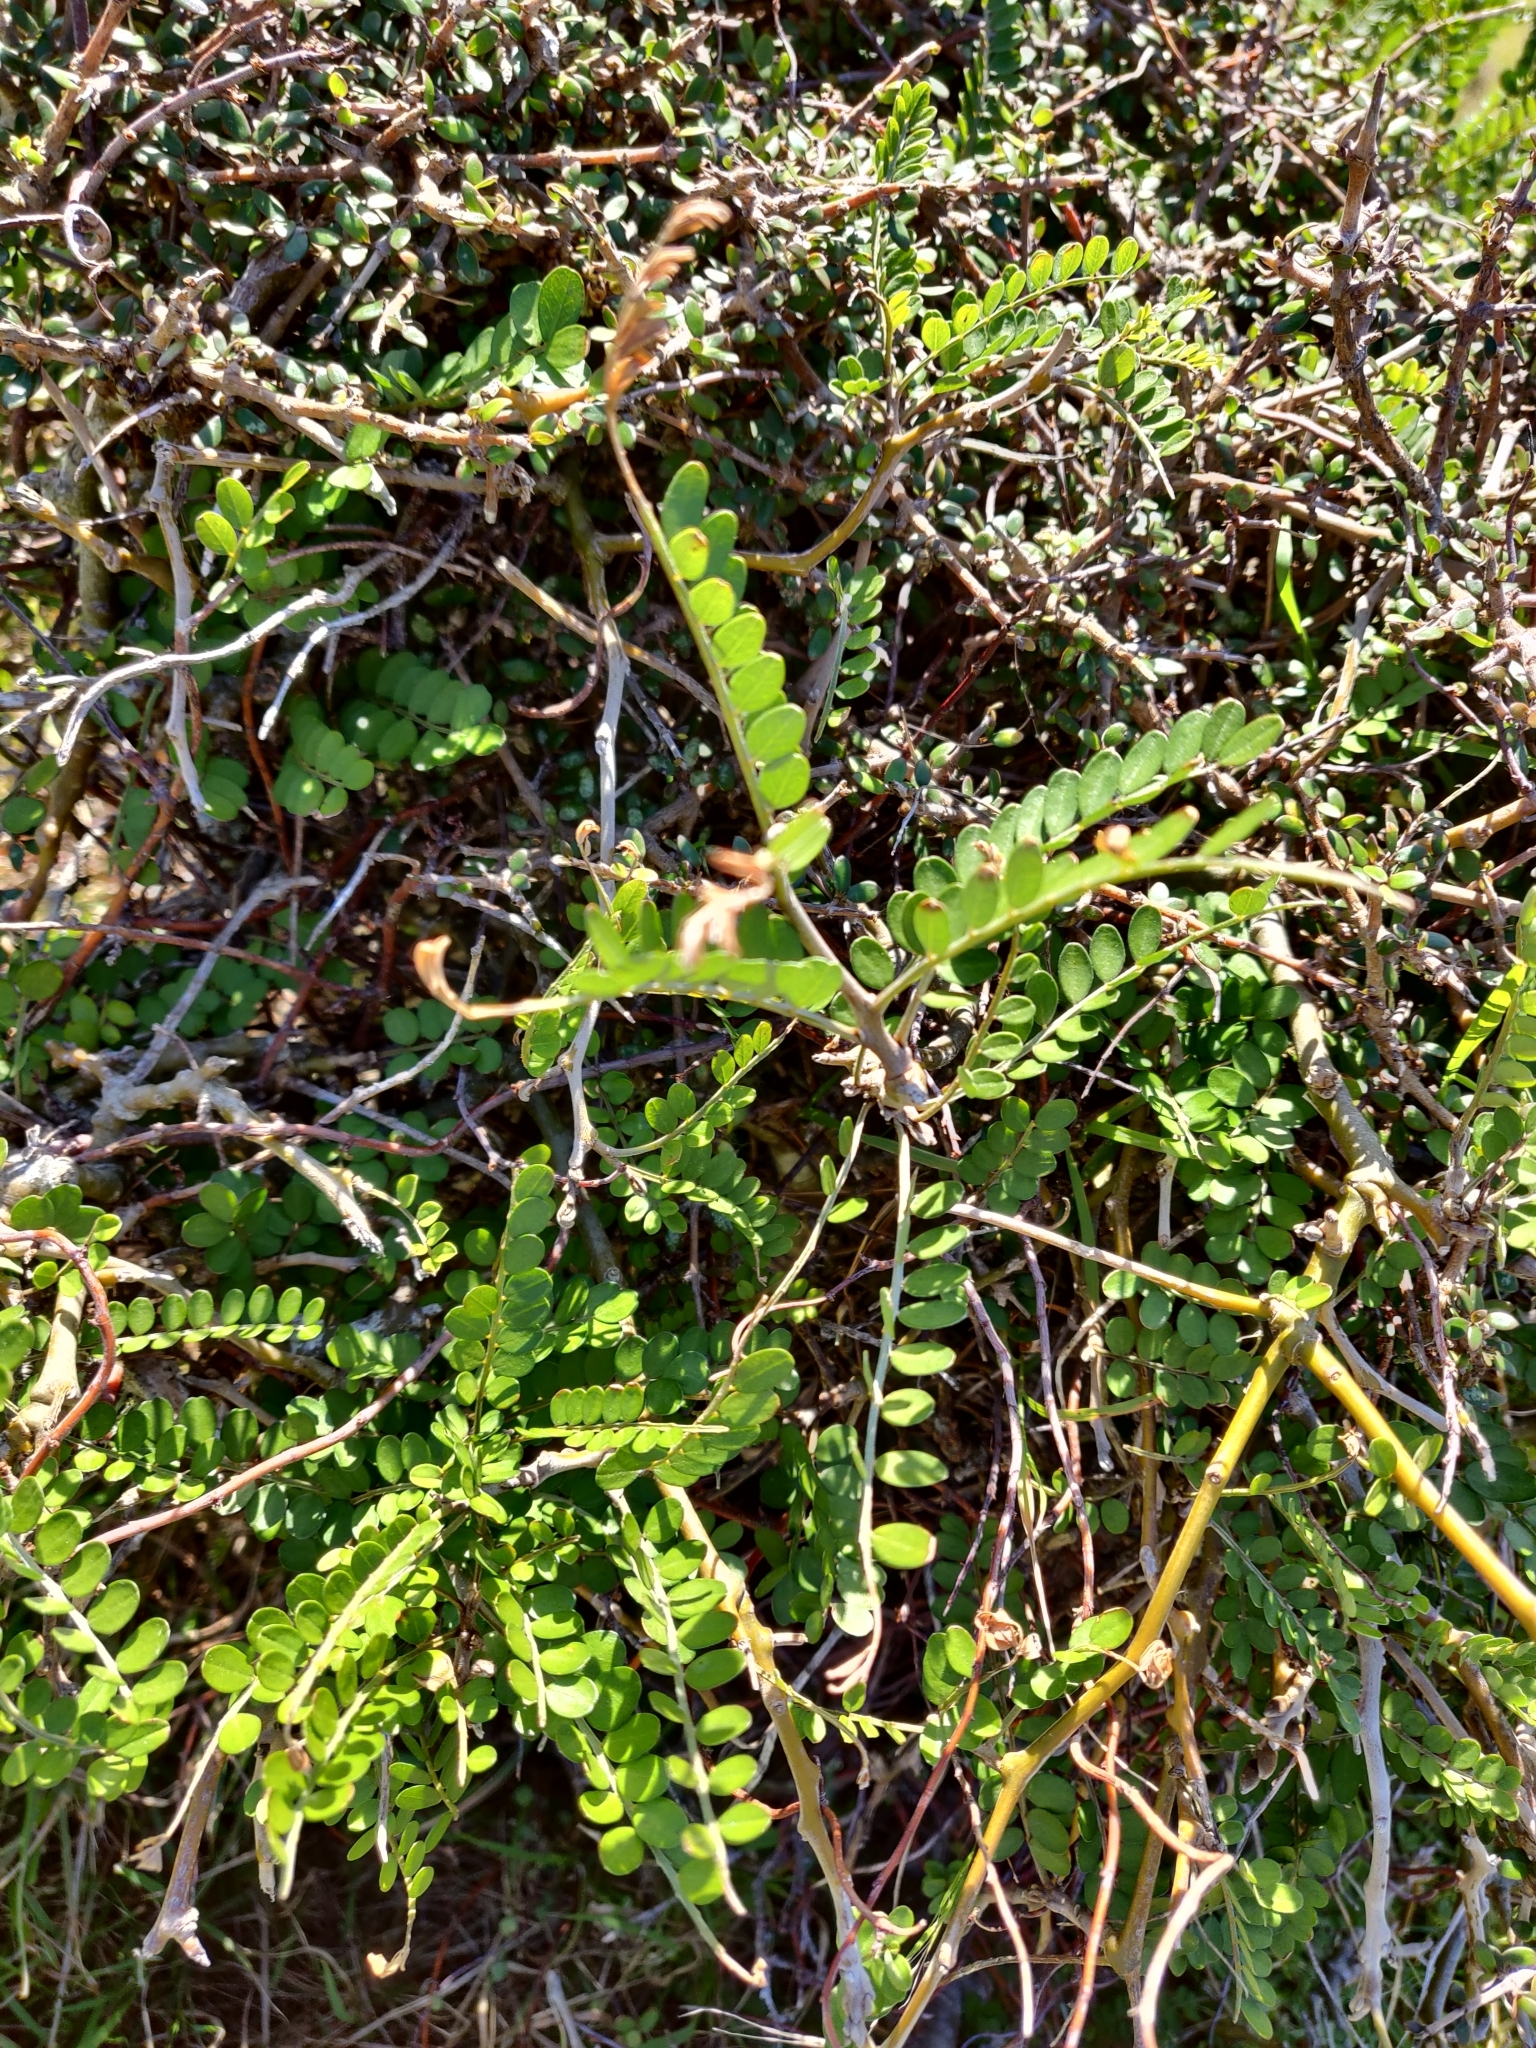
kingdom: Plantae
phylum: Tracheophyta
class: Magnoliopsida
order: Fabales
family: Fabaceae
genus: Sophora
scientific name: Sophora molloyi
